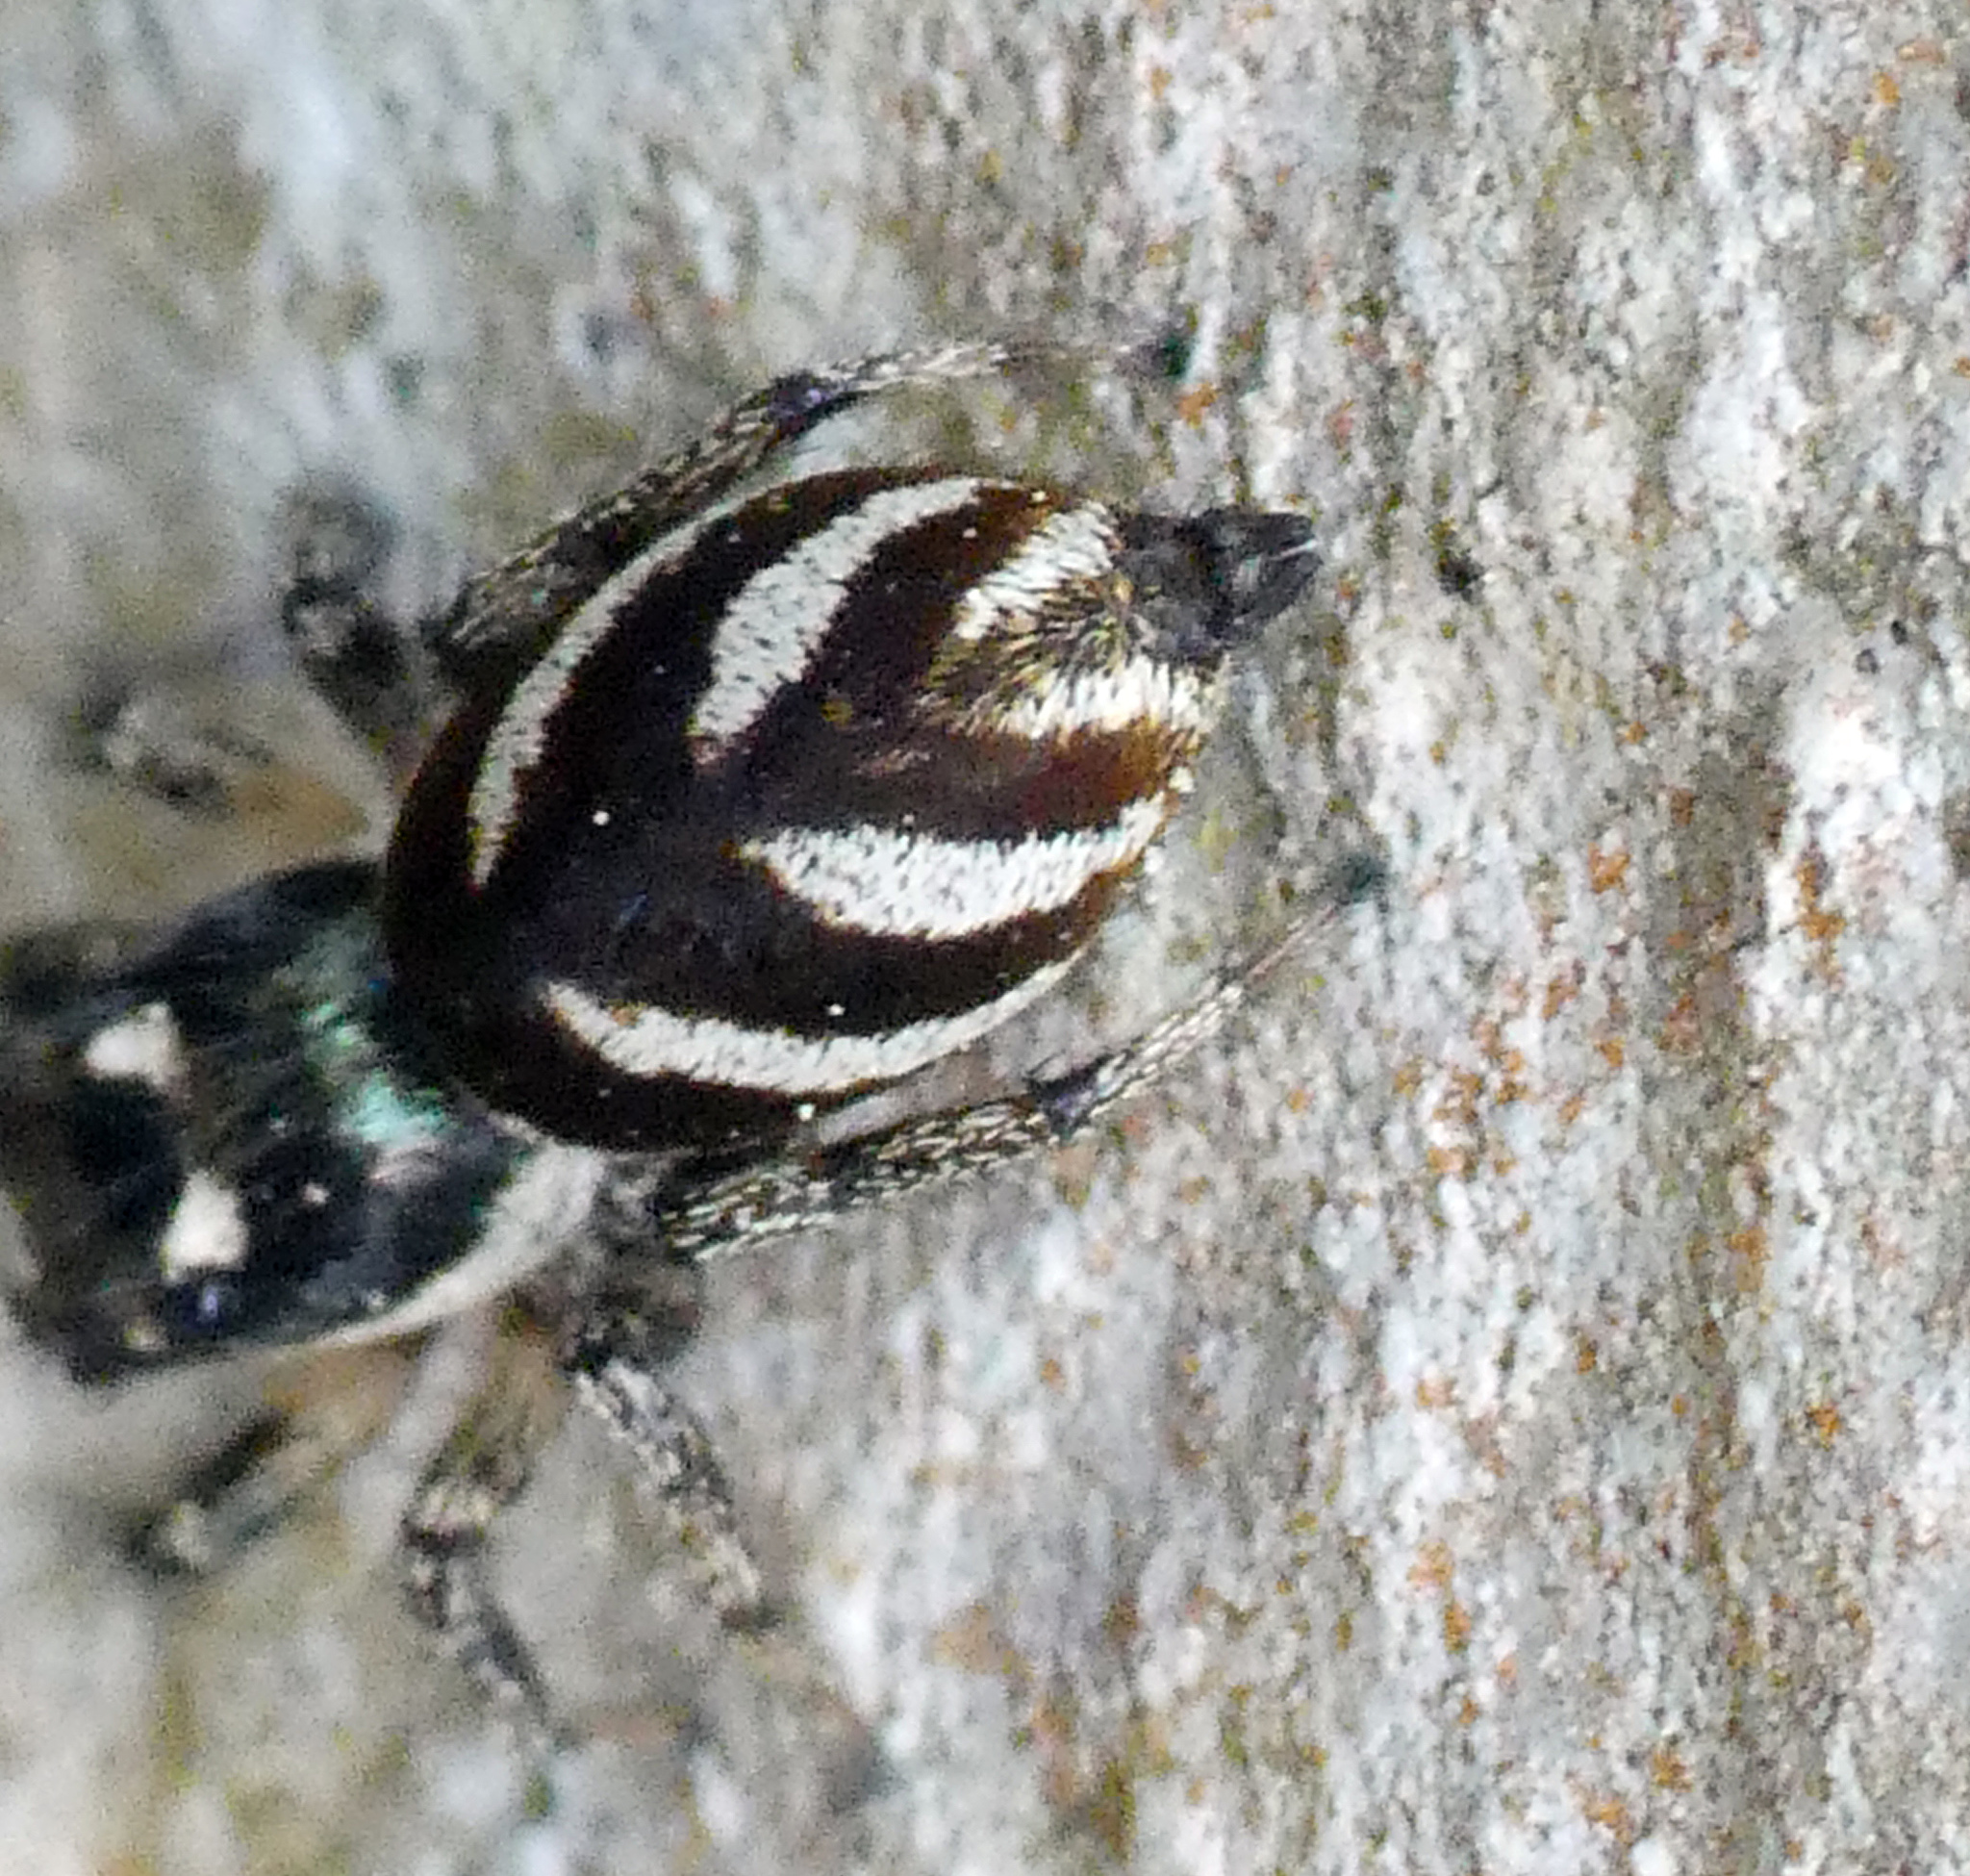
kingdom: Animalia
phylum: Arthropoda
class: Arachnida
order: Araneae
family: Salticidae
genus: Salticus
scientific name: Salticus scenicus
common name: Zebra jumper
